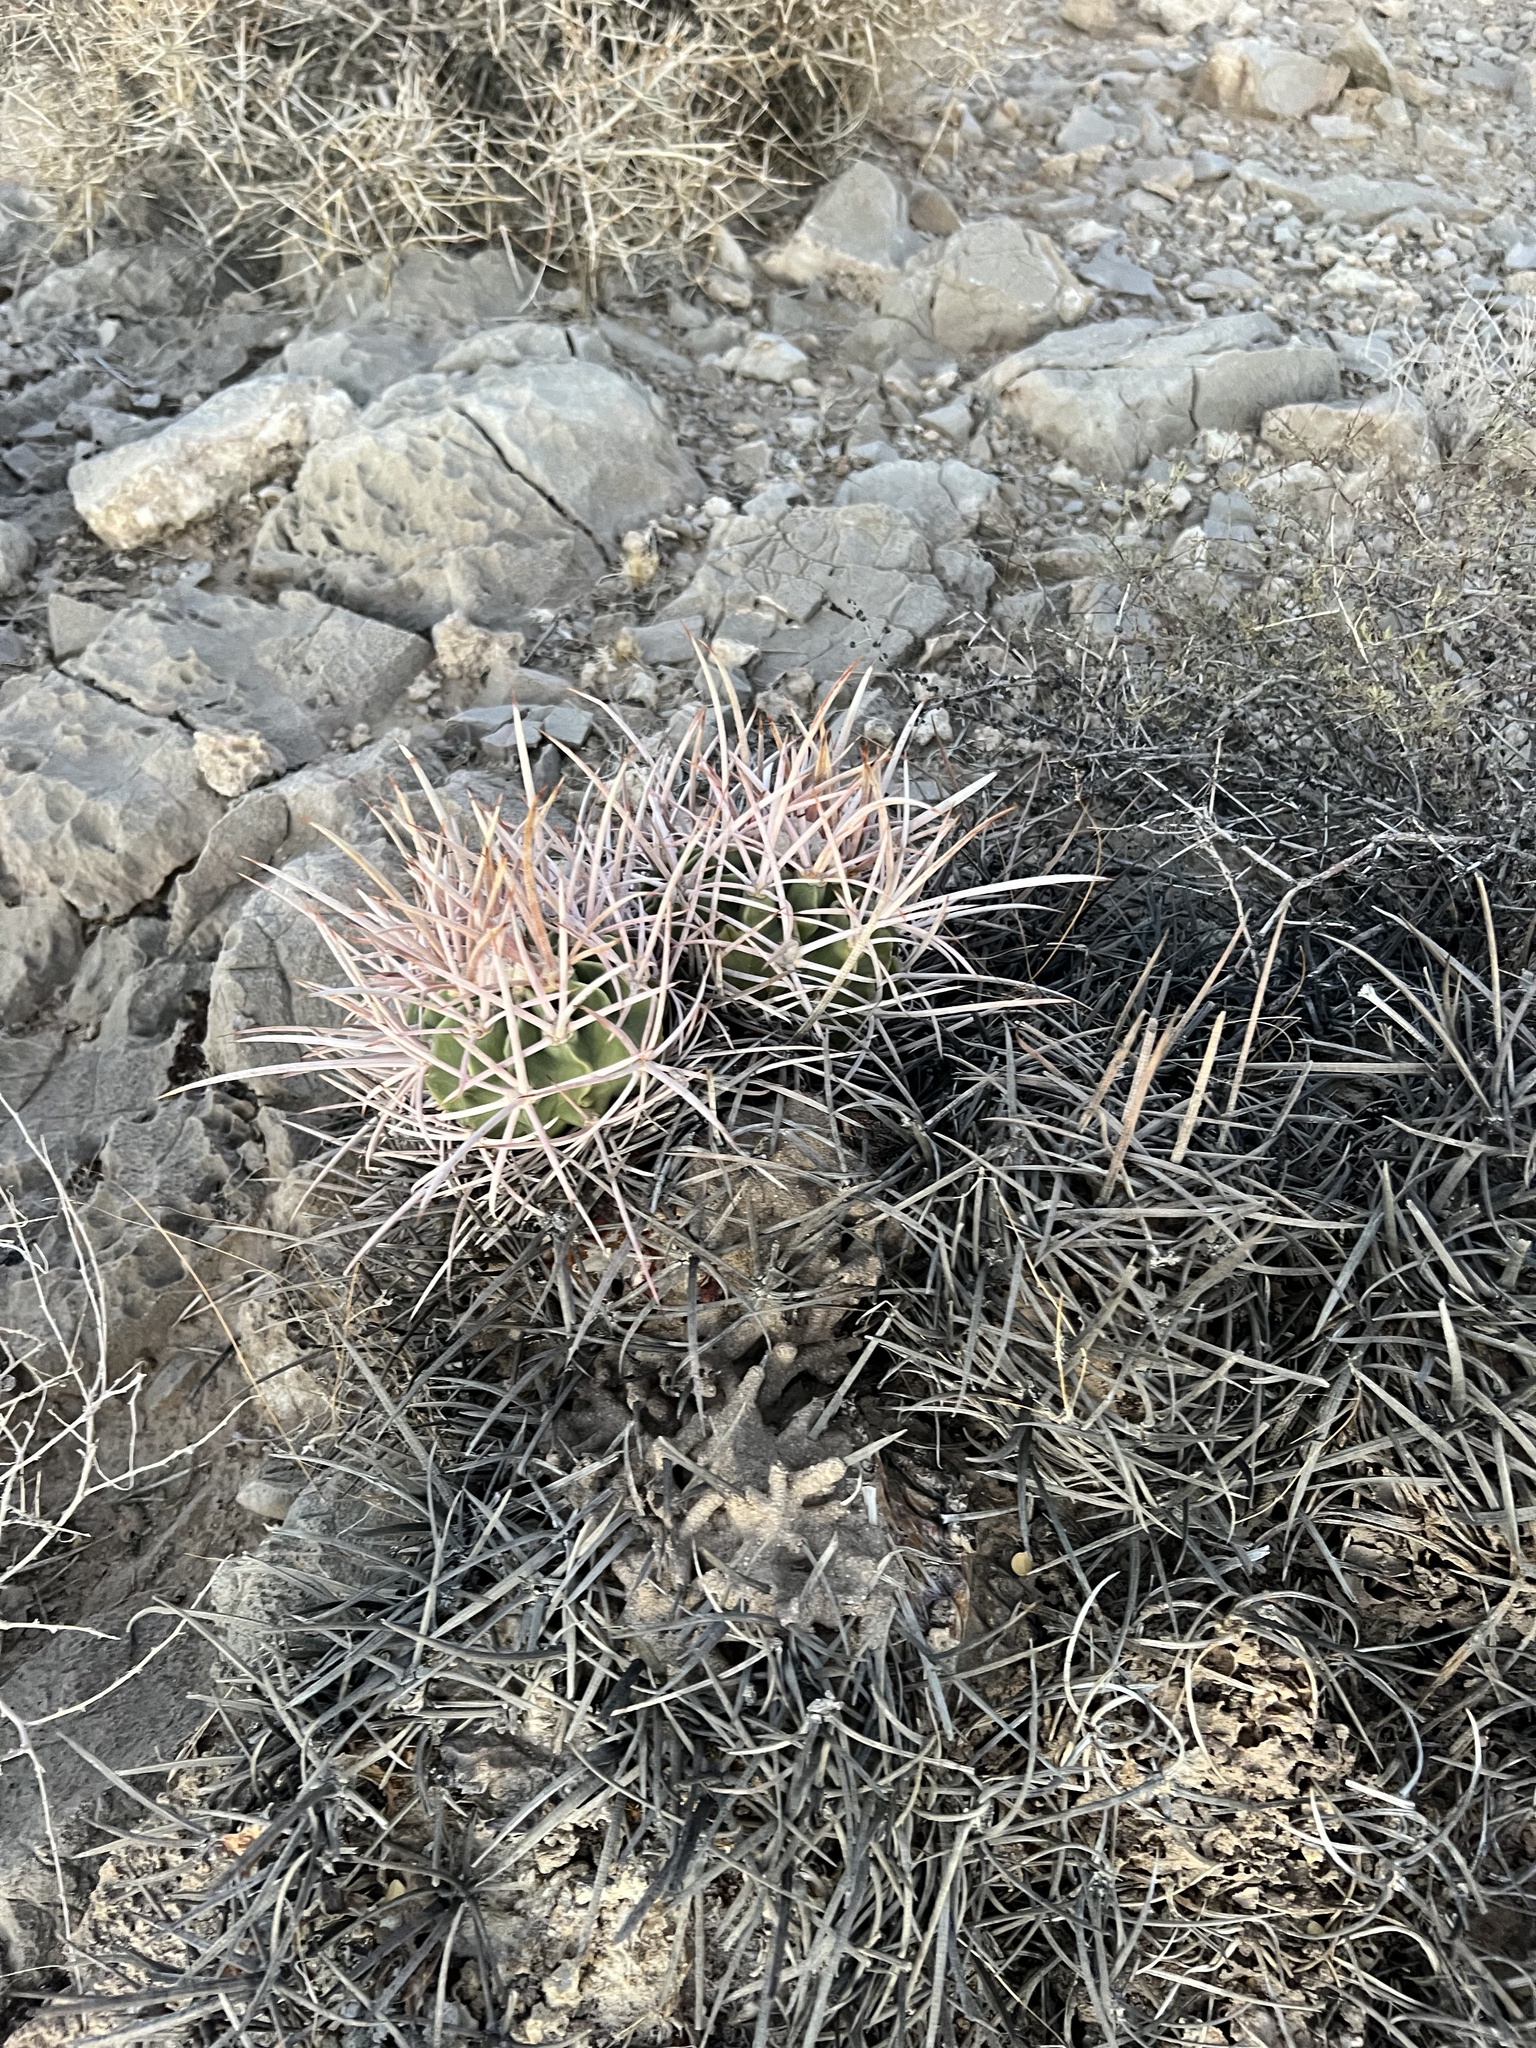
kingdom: Plantae
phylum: Tracheophyta
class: Magnoliopsida
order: Caryophyllales
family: Cactaceae
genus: Echinocactus
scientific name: Echinocactus polycephalus
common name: Cottontop cactus
